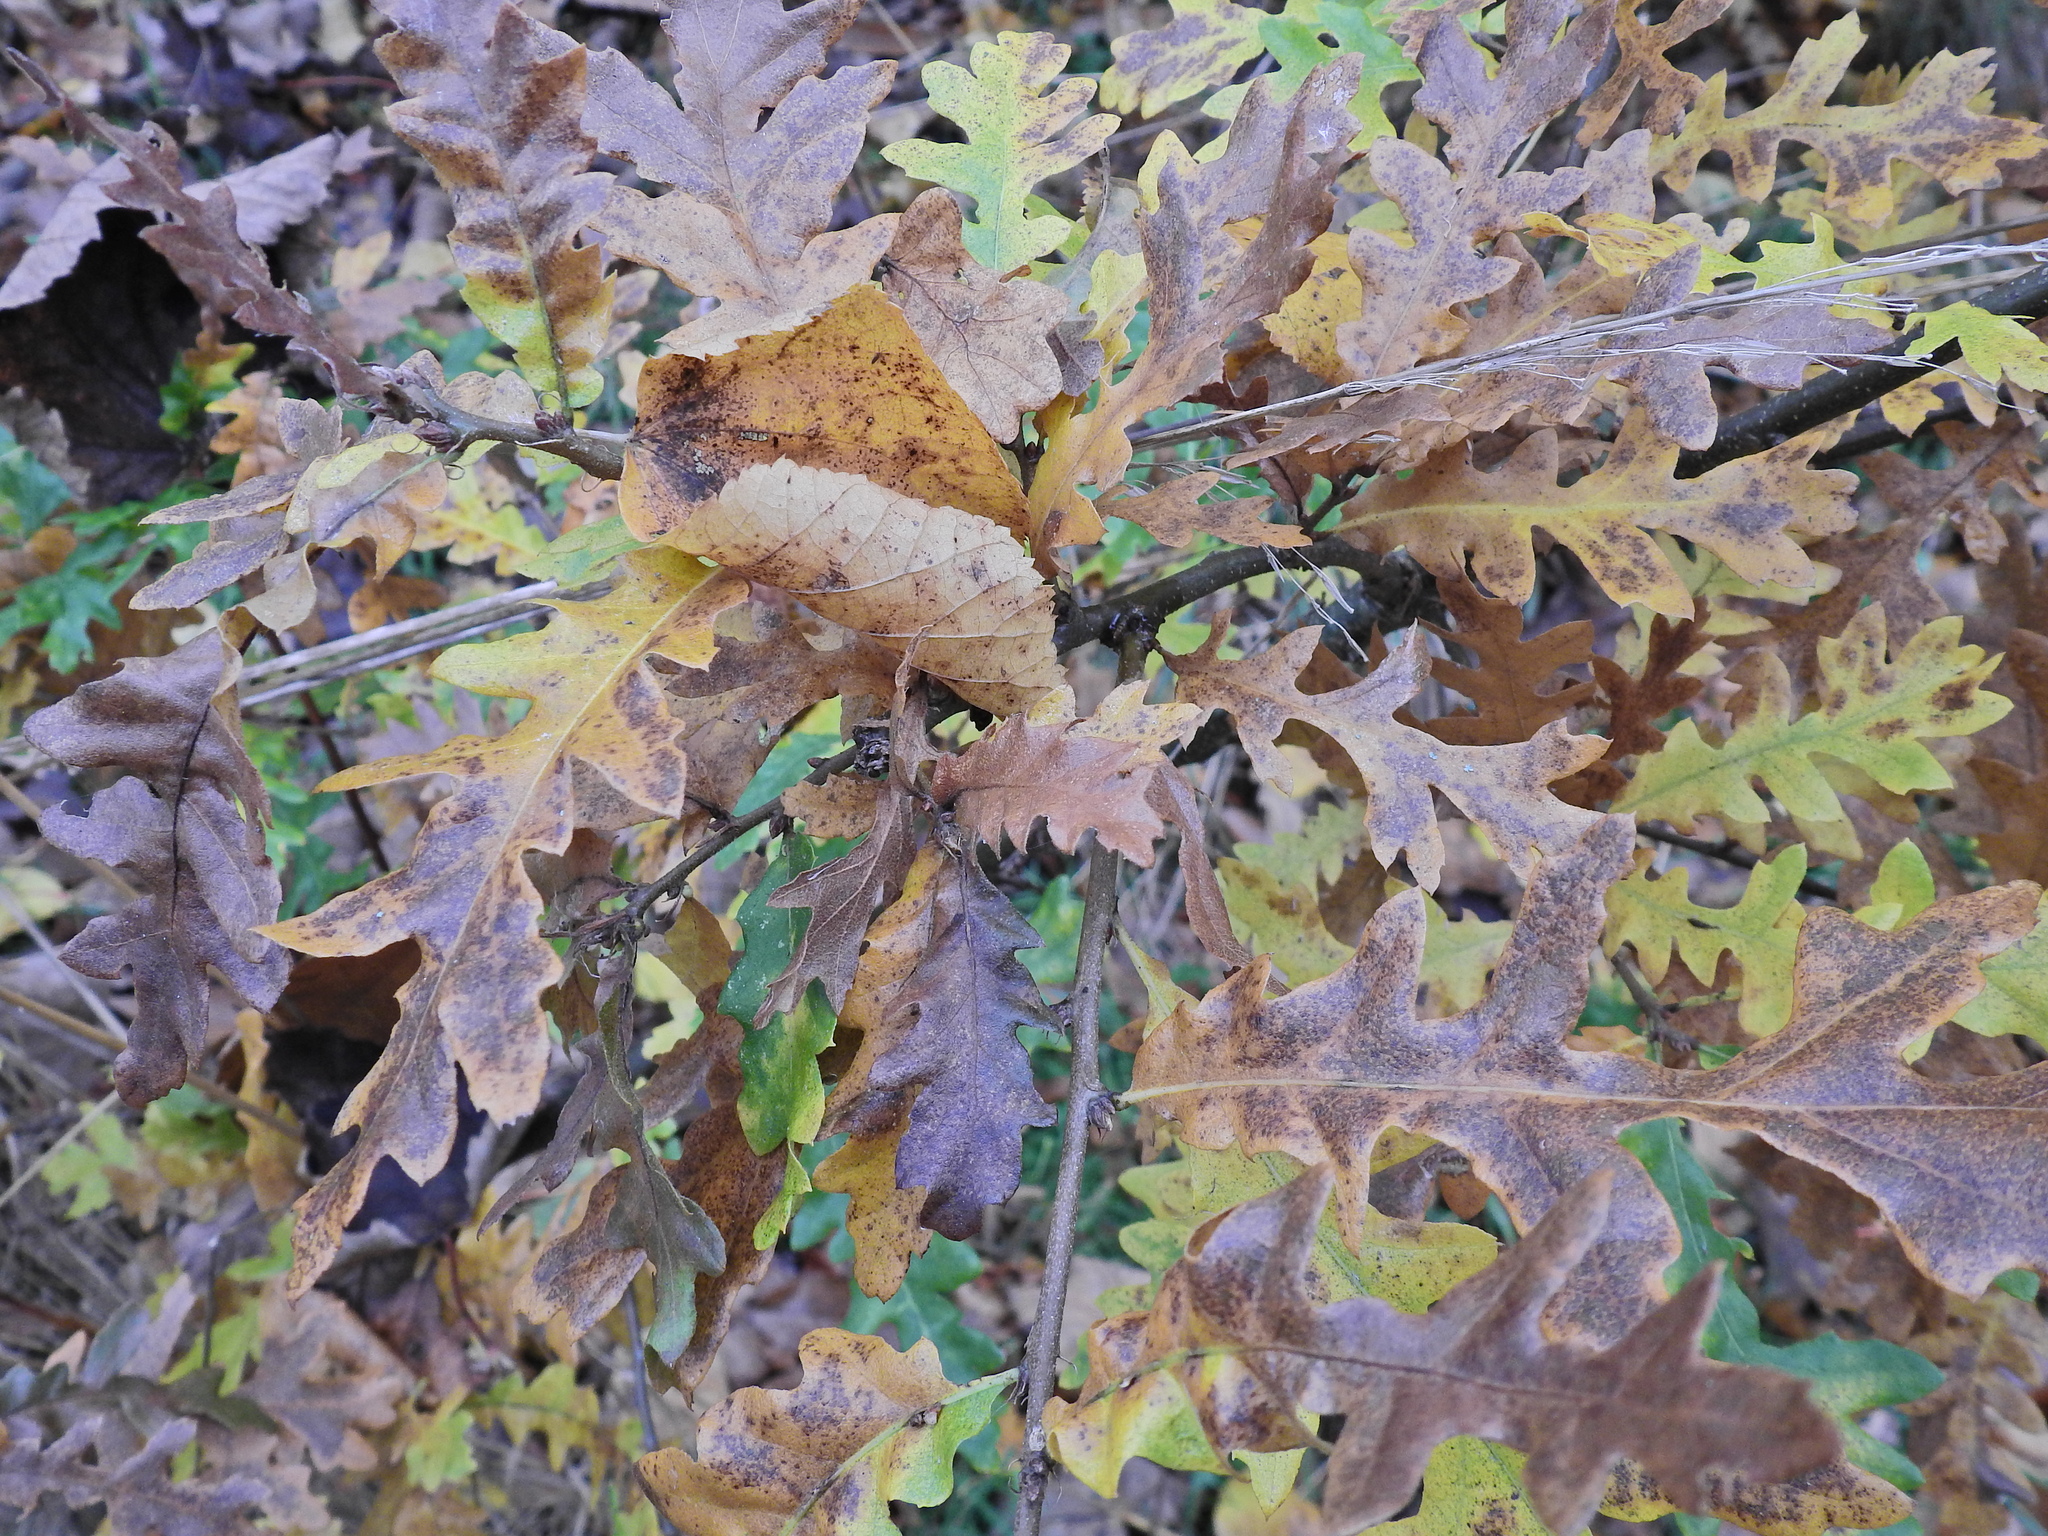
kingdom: Plantae
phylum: Tracheophyta
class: Magnoliopsida
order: Fagales
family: Fagaceae
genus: Quercus
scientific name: Quercus cerris
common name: Turkey oak
